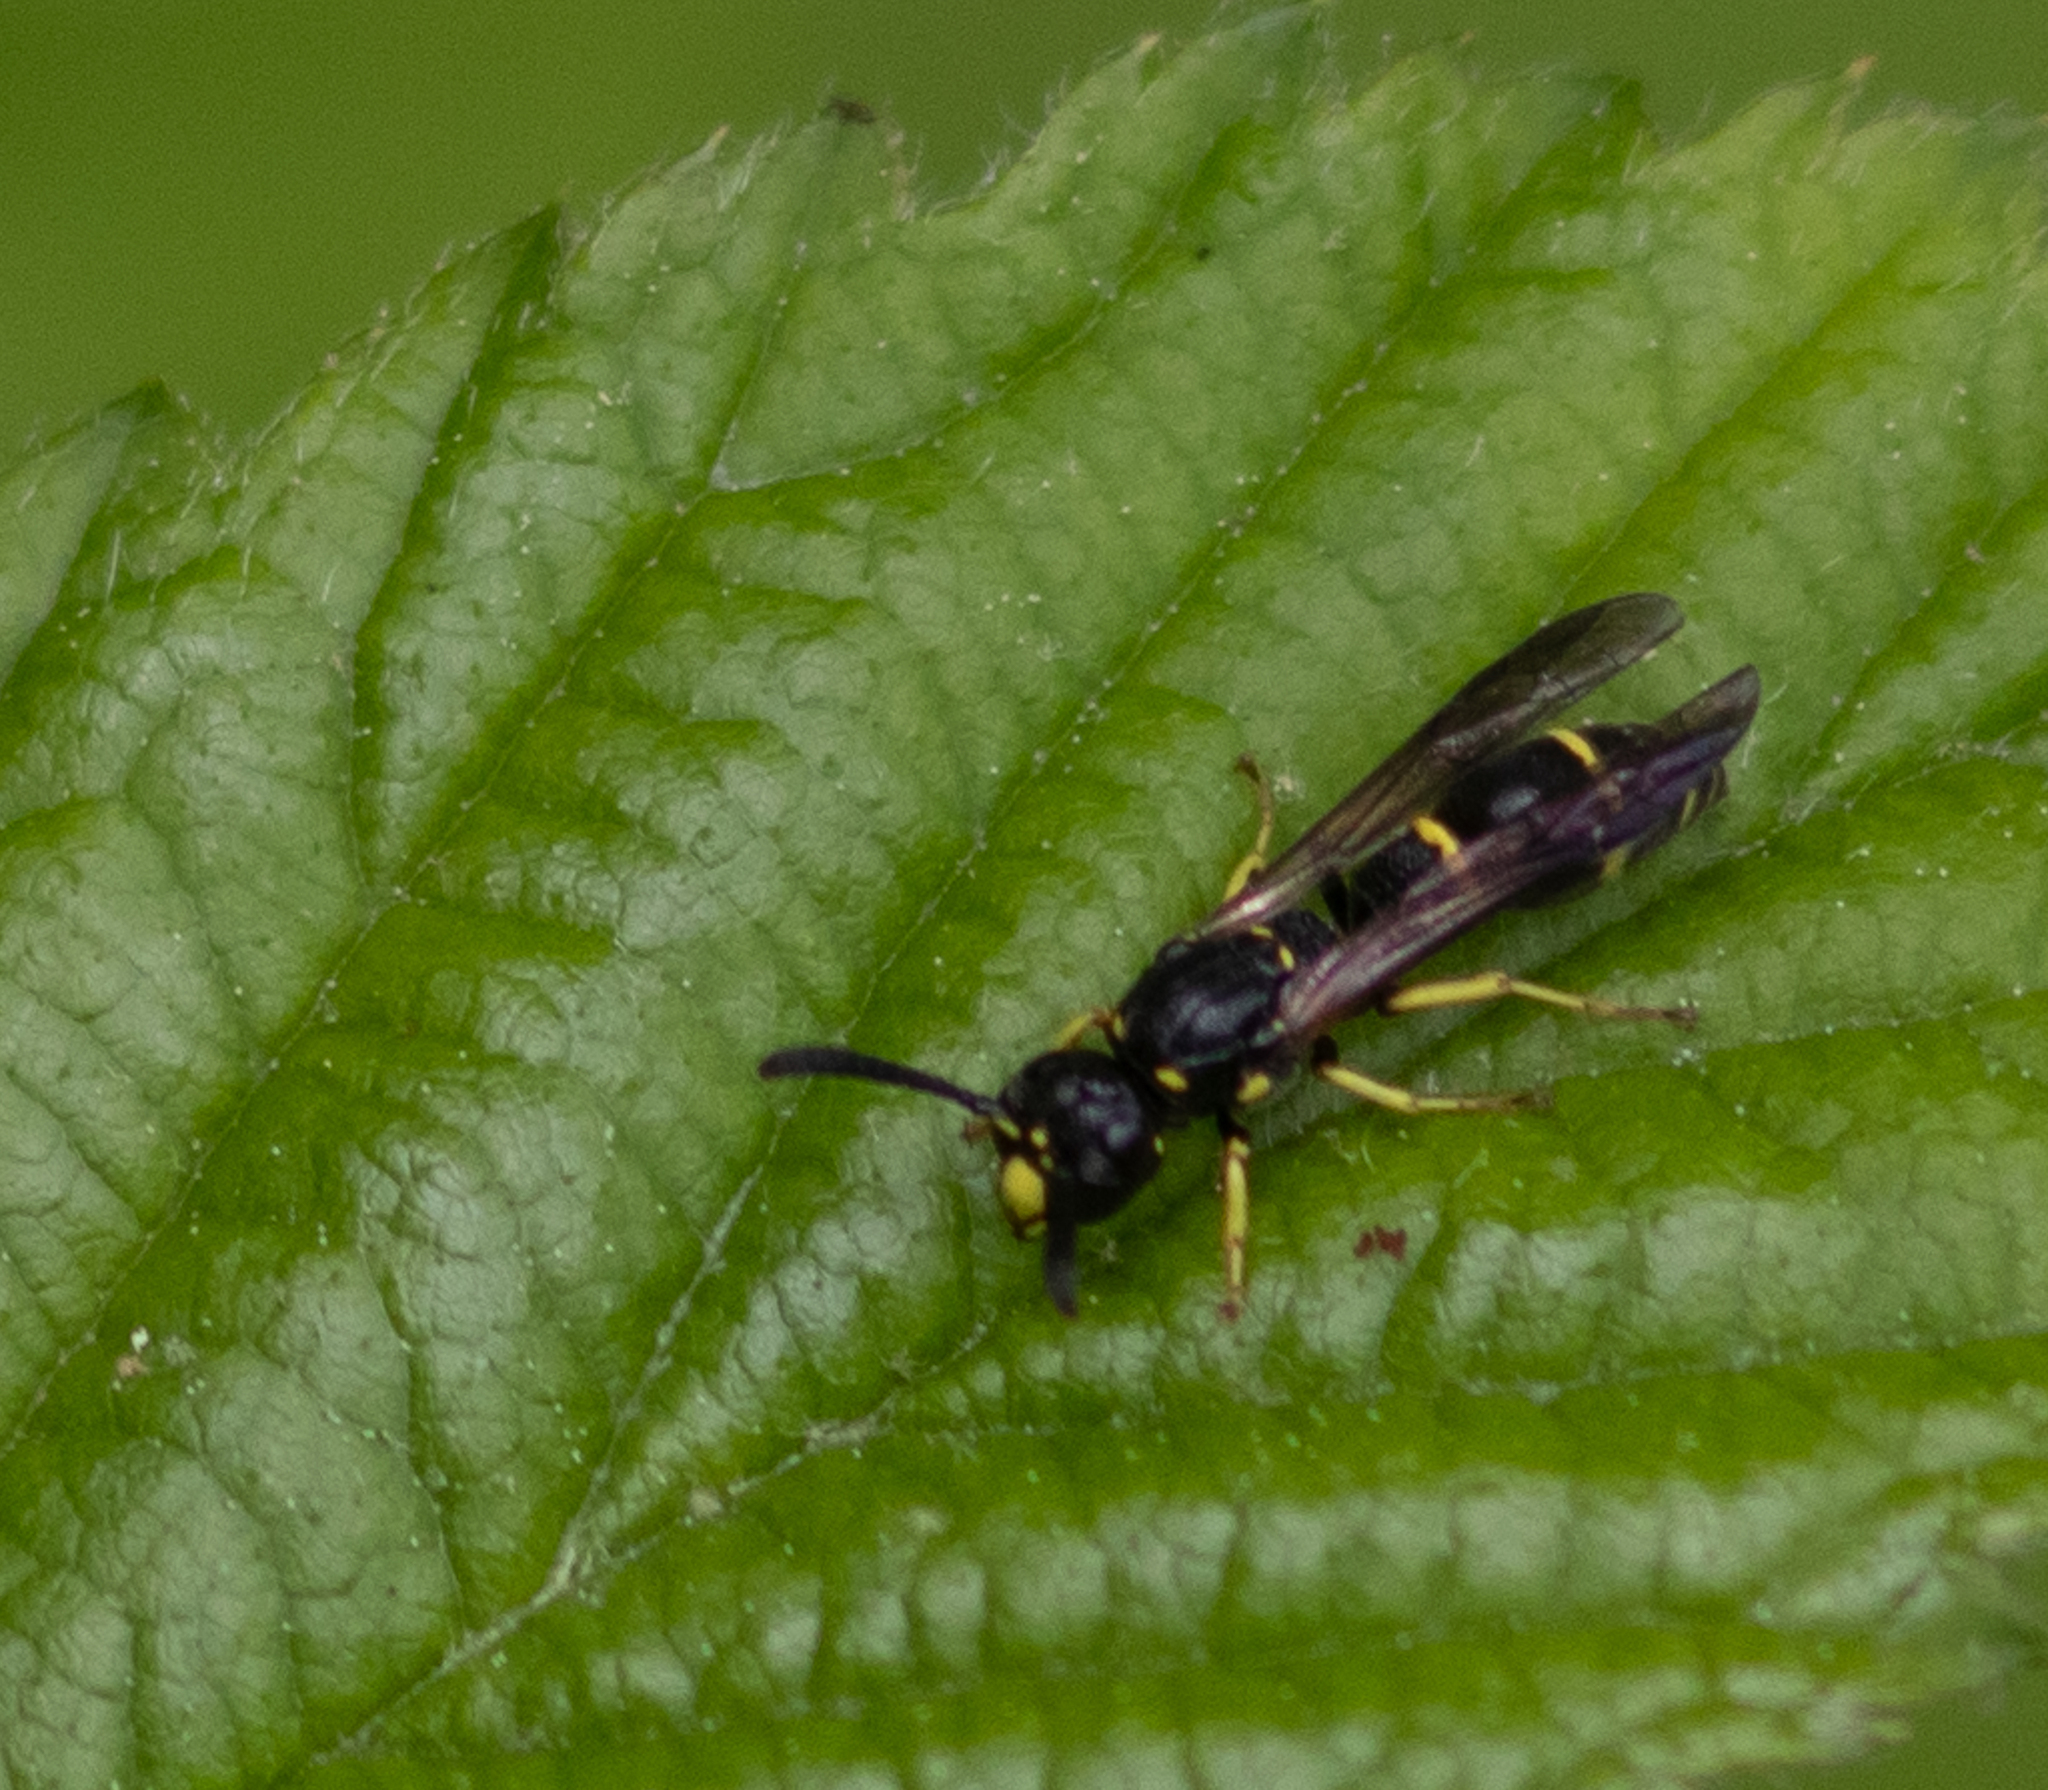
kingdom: Animalia
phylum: Arthropoda
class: Insecta
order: Hymenoptera
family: Eumenidae
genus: Symmorphus
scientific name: Symmorphus
